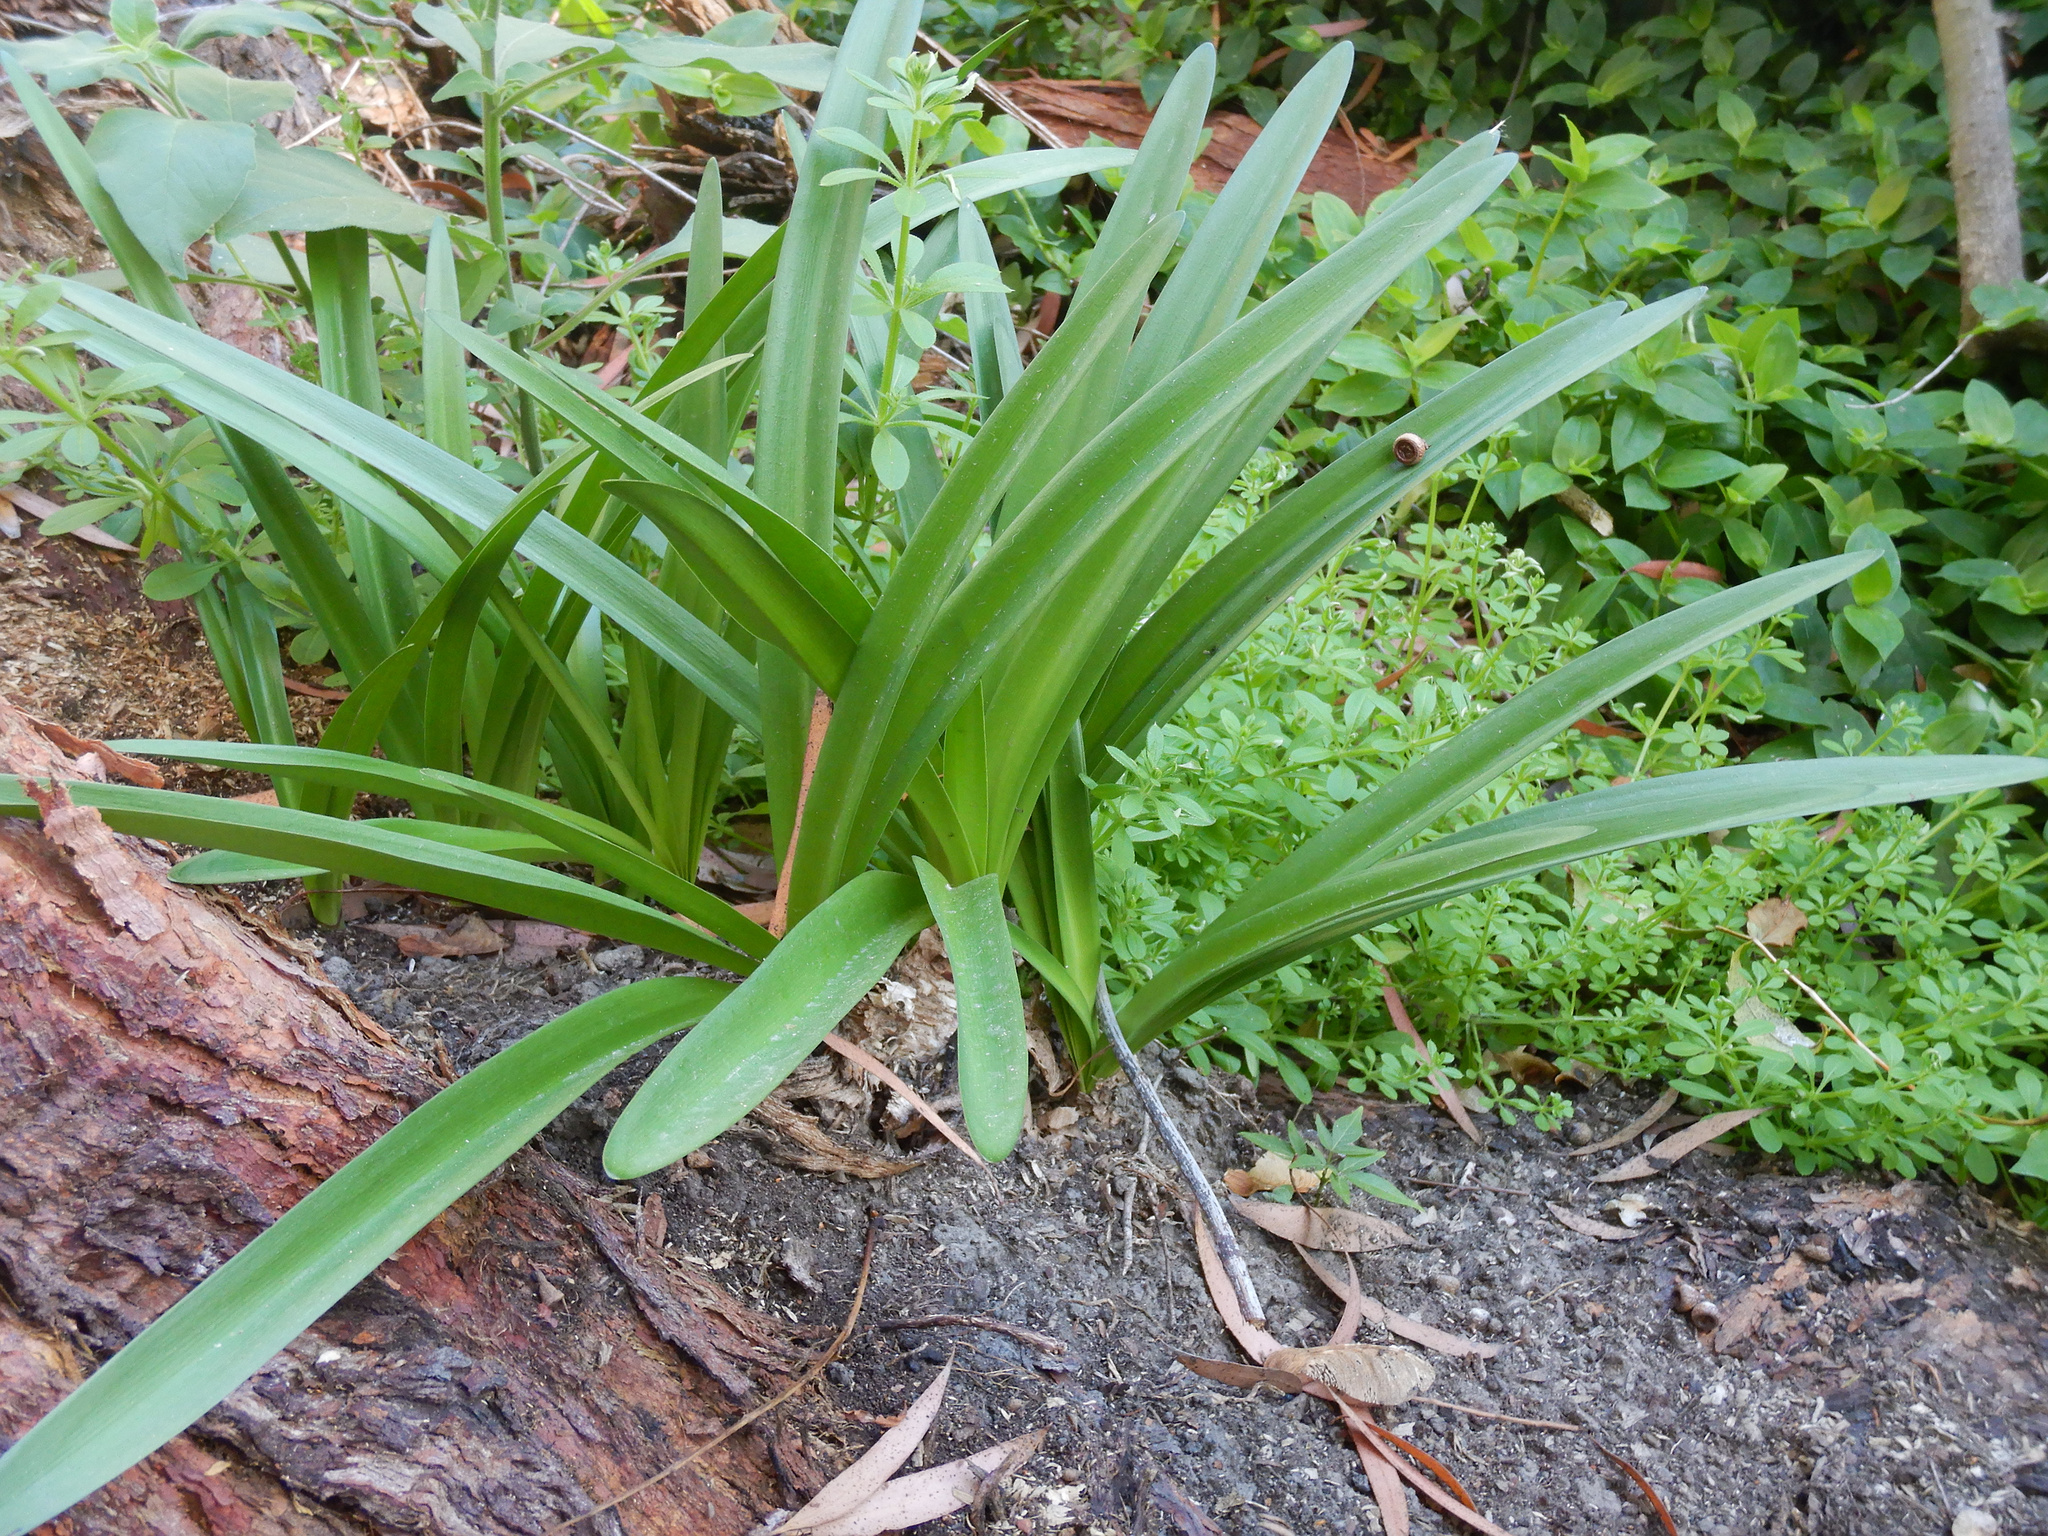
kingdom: Plantae
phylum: Tracheophyta
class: Liliopsida
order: Asparagales
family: Amaryllidaceae
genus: Agapanthus
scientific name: Agapanthus praecox
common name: African-lily
